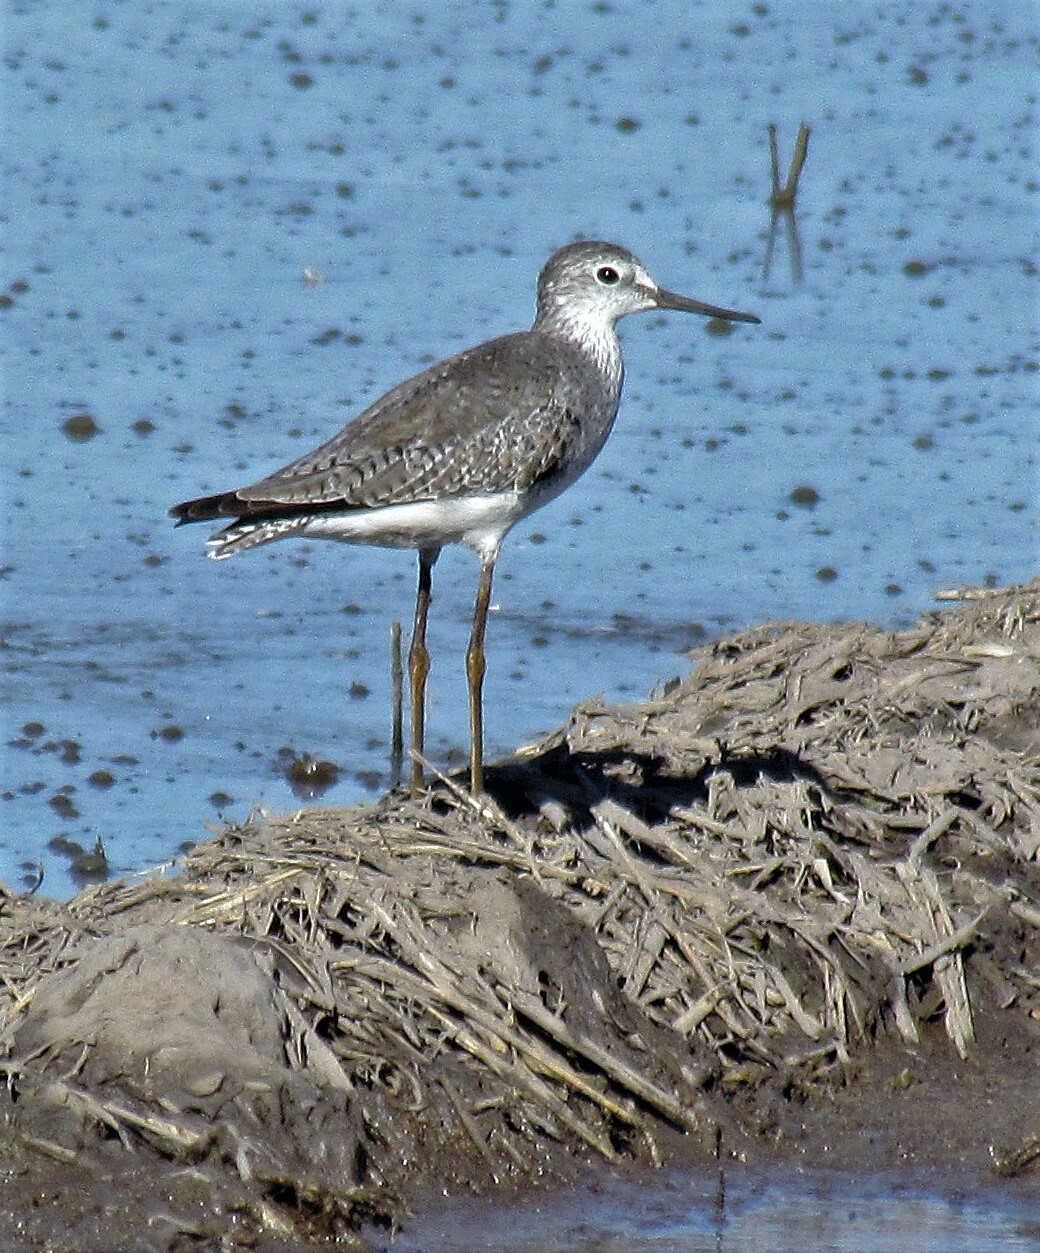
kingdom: Animalia
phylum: Chordata
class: Aves
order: Charadriiformes
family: Scolopacidae
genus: Tringa
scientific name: Tringa flavipes
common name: Lesser yellowlegs
